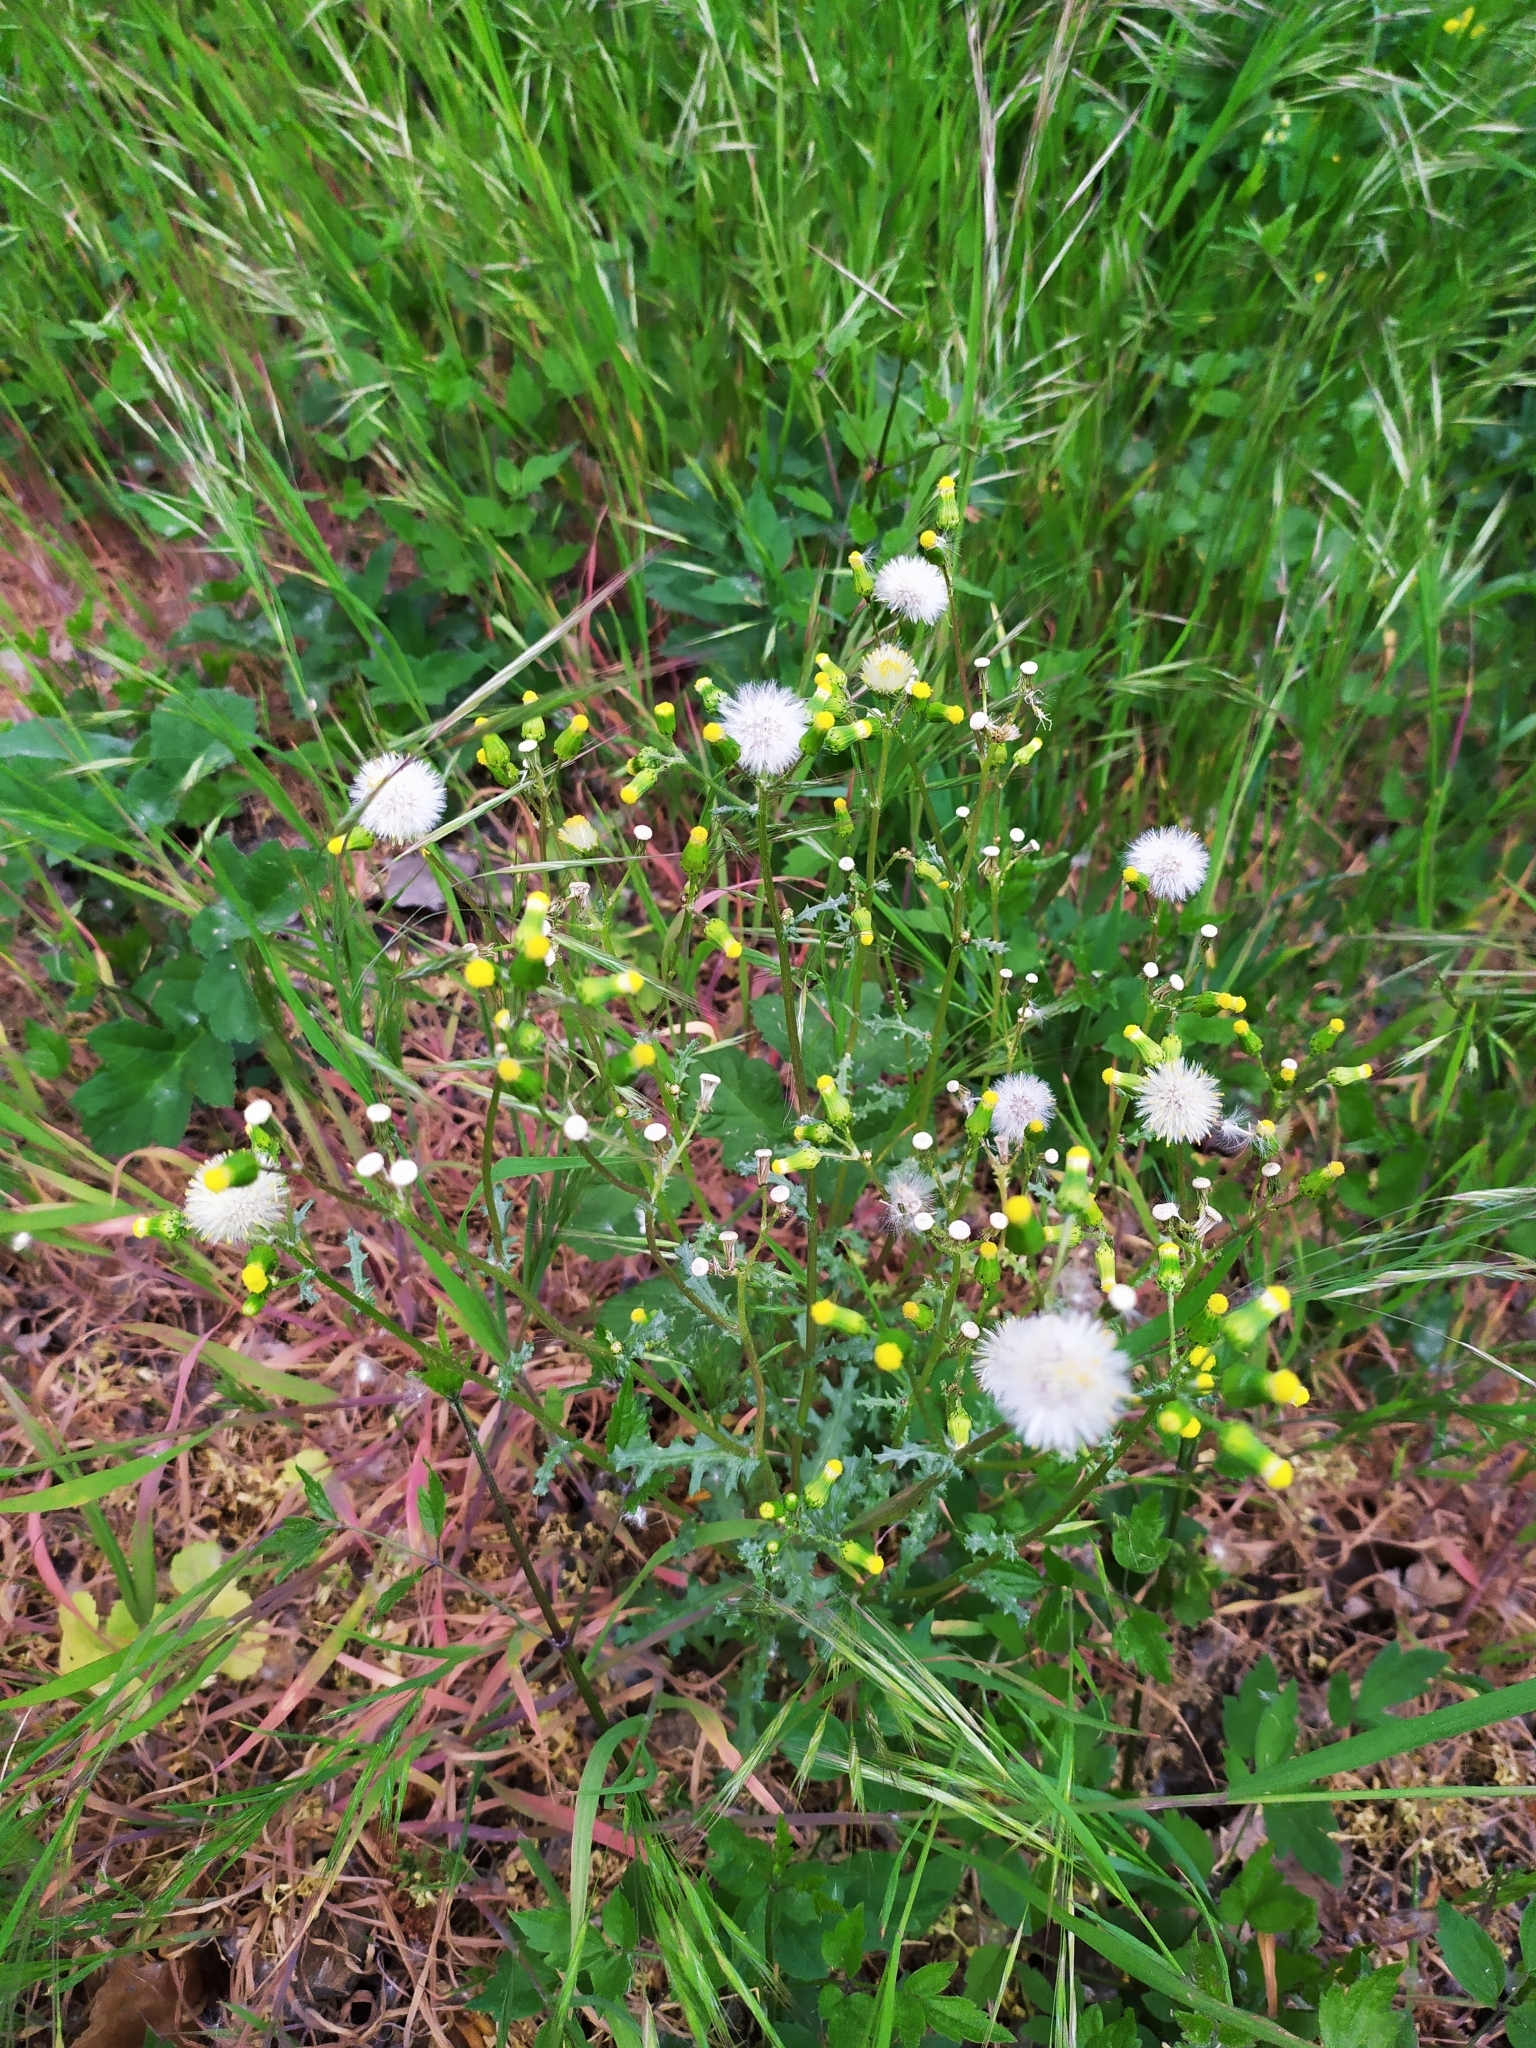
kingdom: Plantae
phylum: Tracheophyta
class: Magnoliopsida
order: Asterales
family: Asteraceae
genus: Senecio
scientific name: Senecio vulgaris
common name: Old-man-in-the-spring
